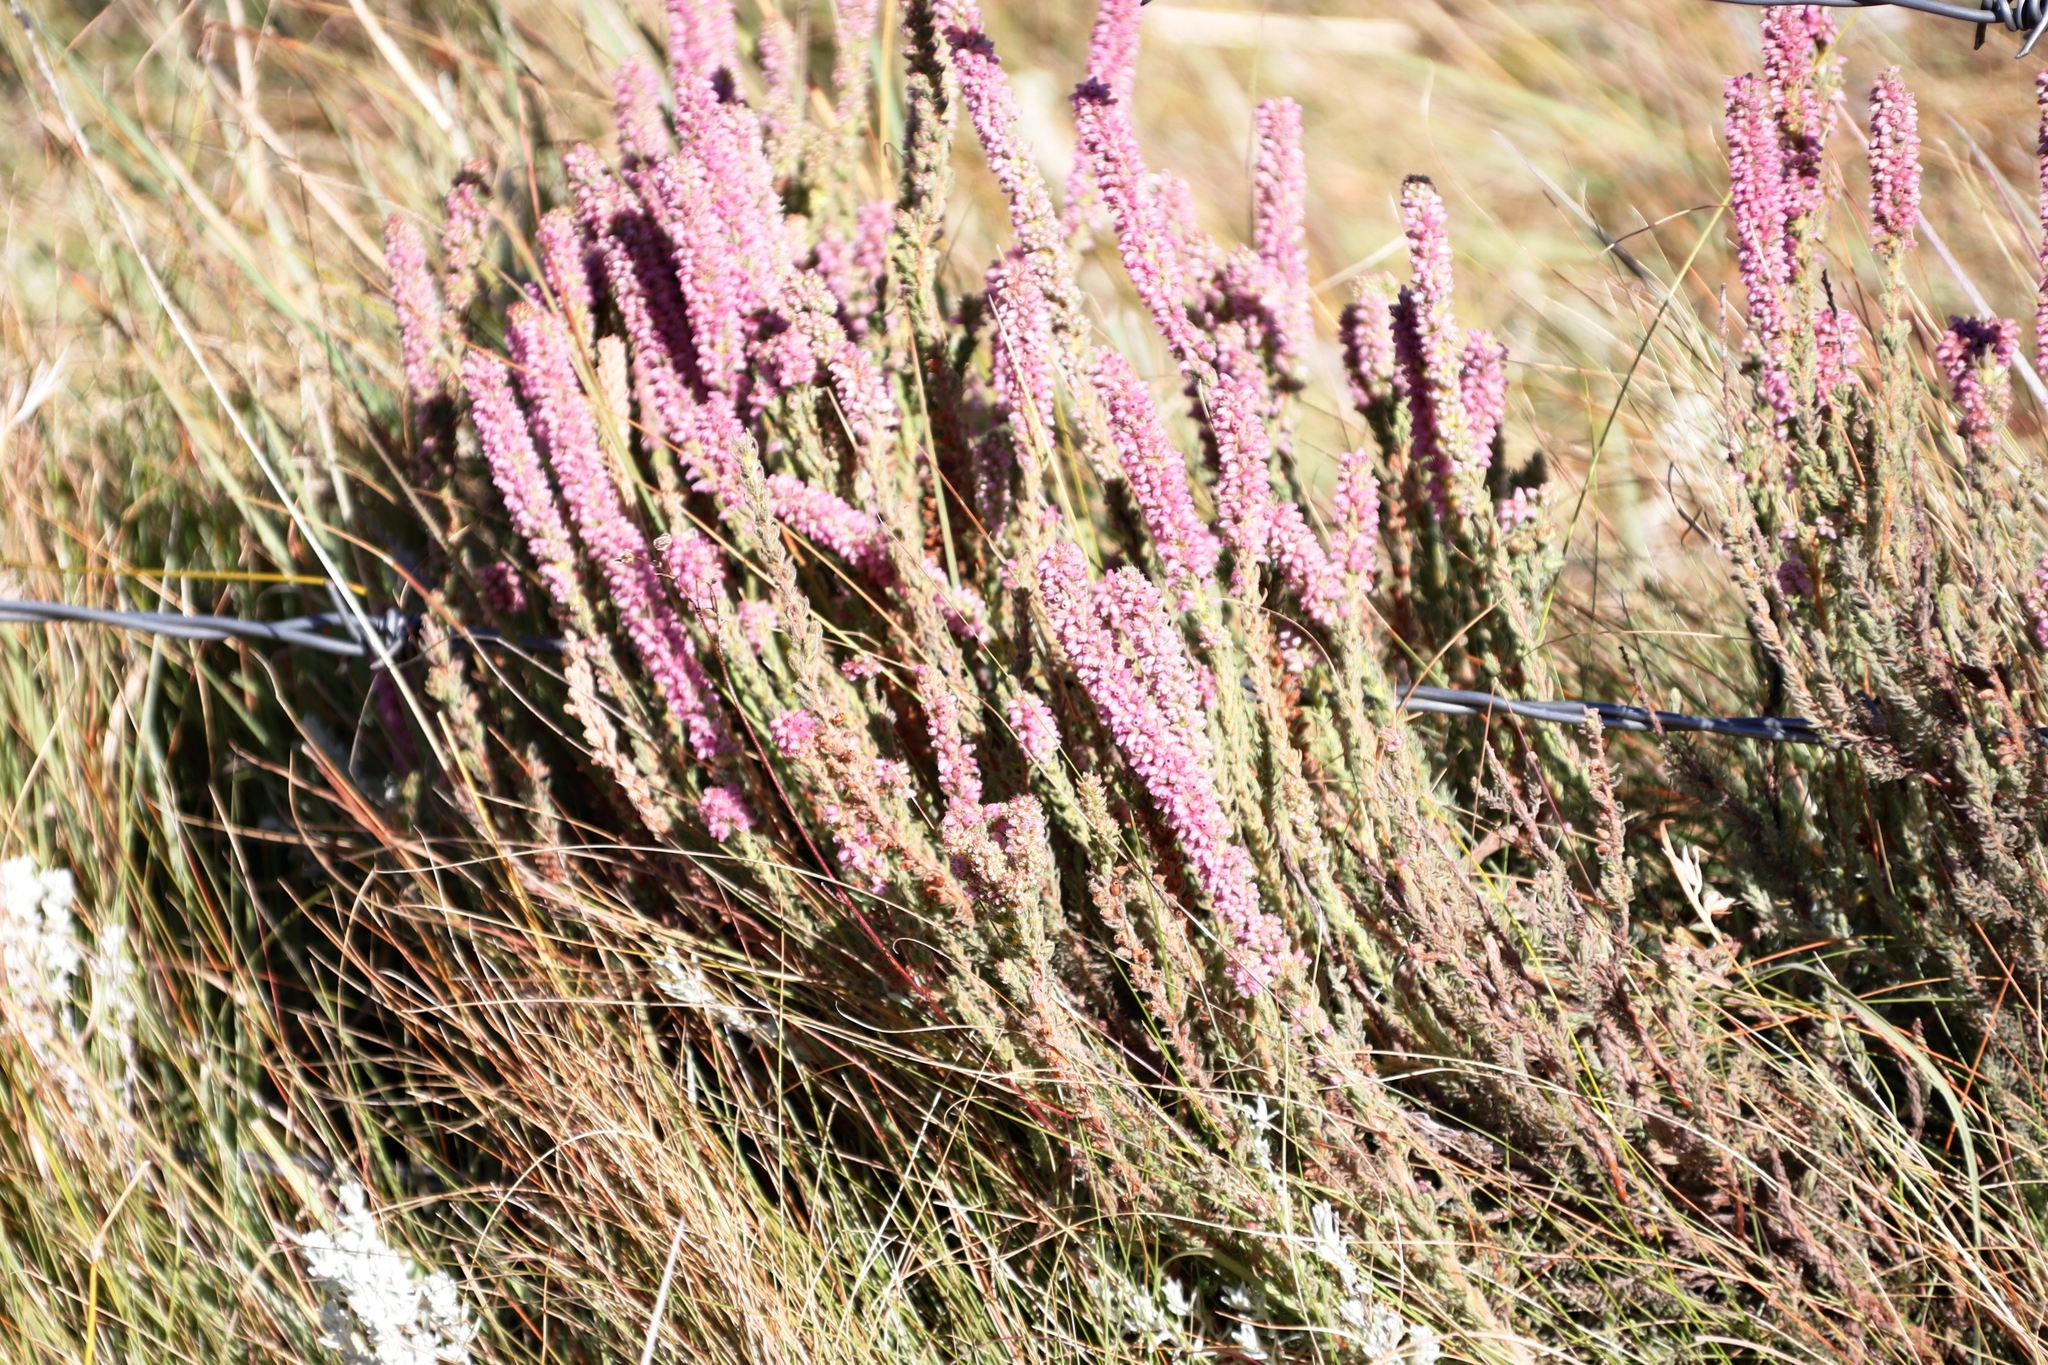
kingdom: Plantae
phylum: Tracheophyta
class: Magnoliopsida
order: Ericales
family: Ericaceae
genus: Erica
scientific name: Erica alopecurus
